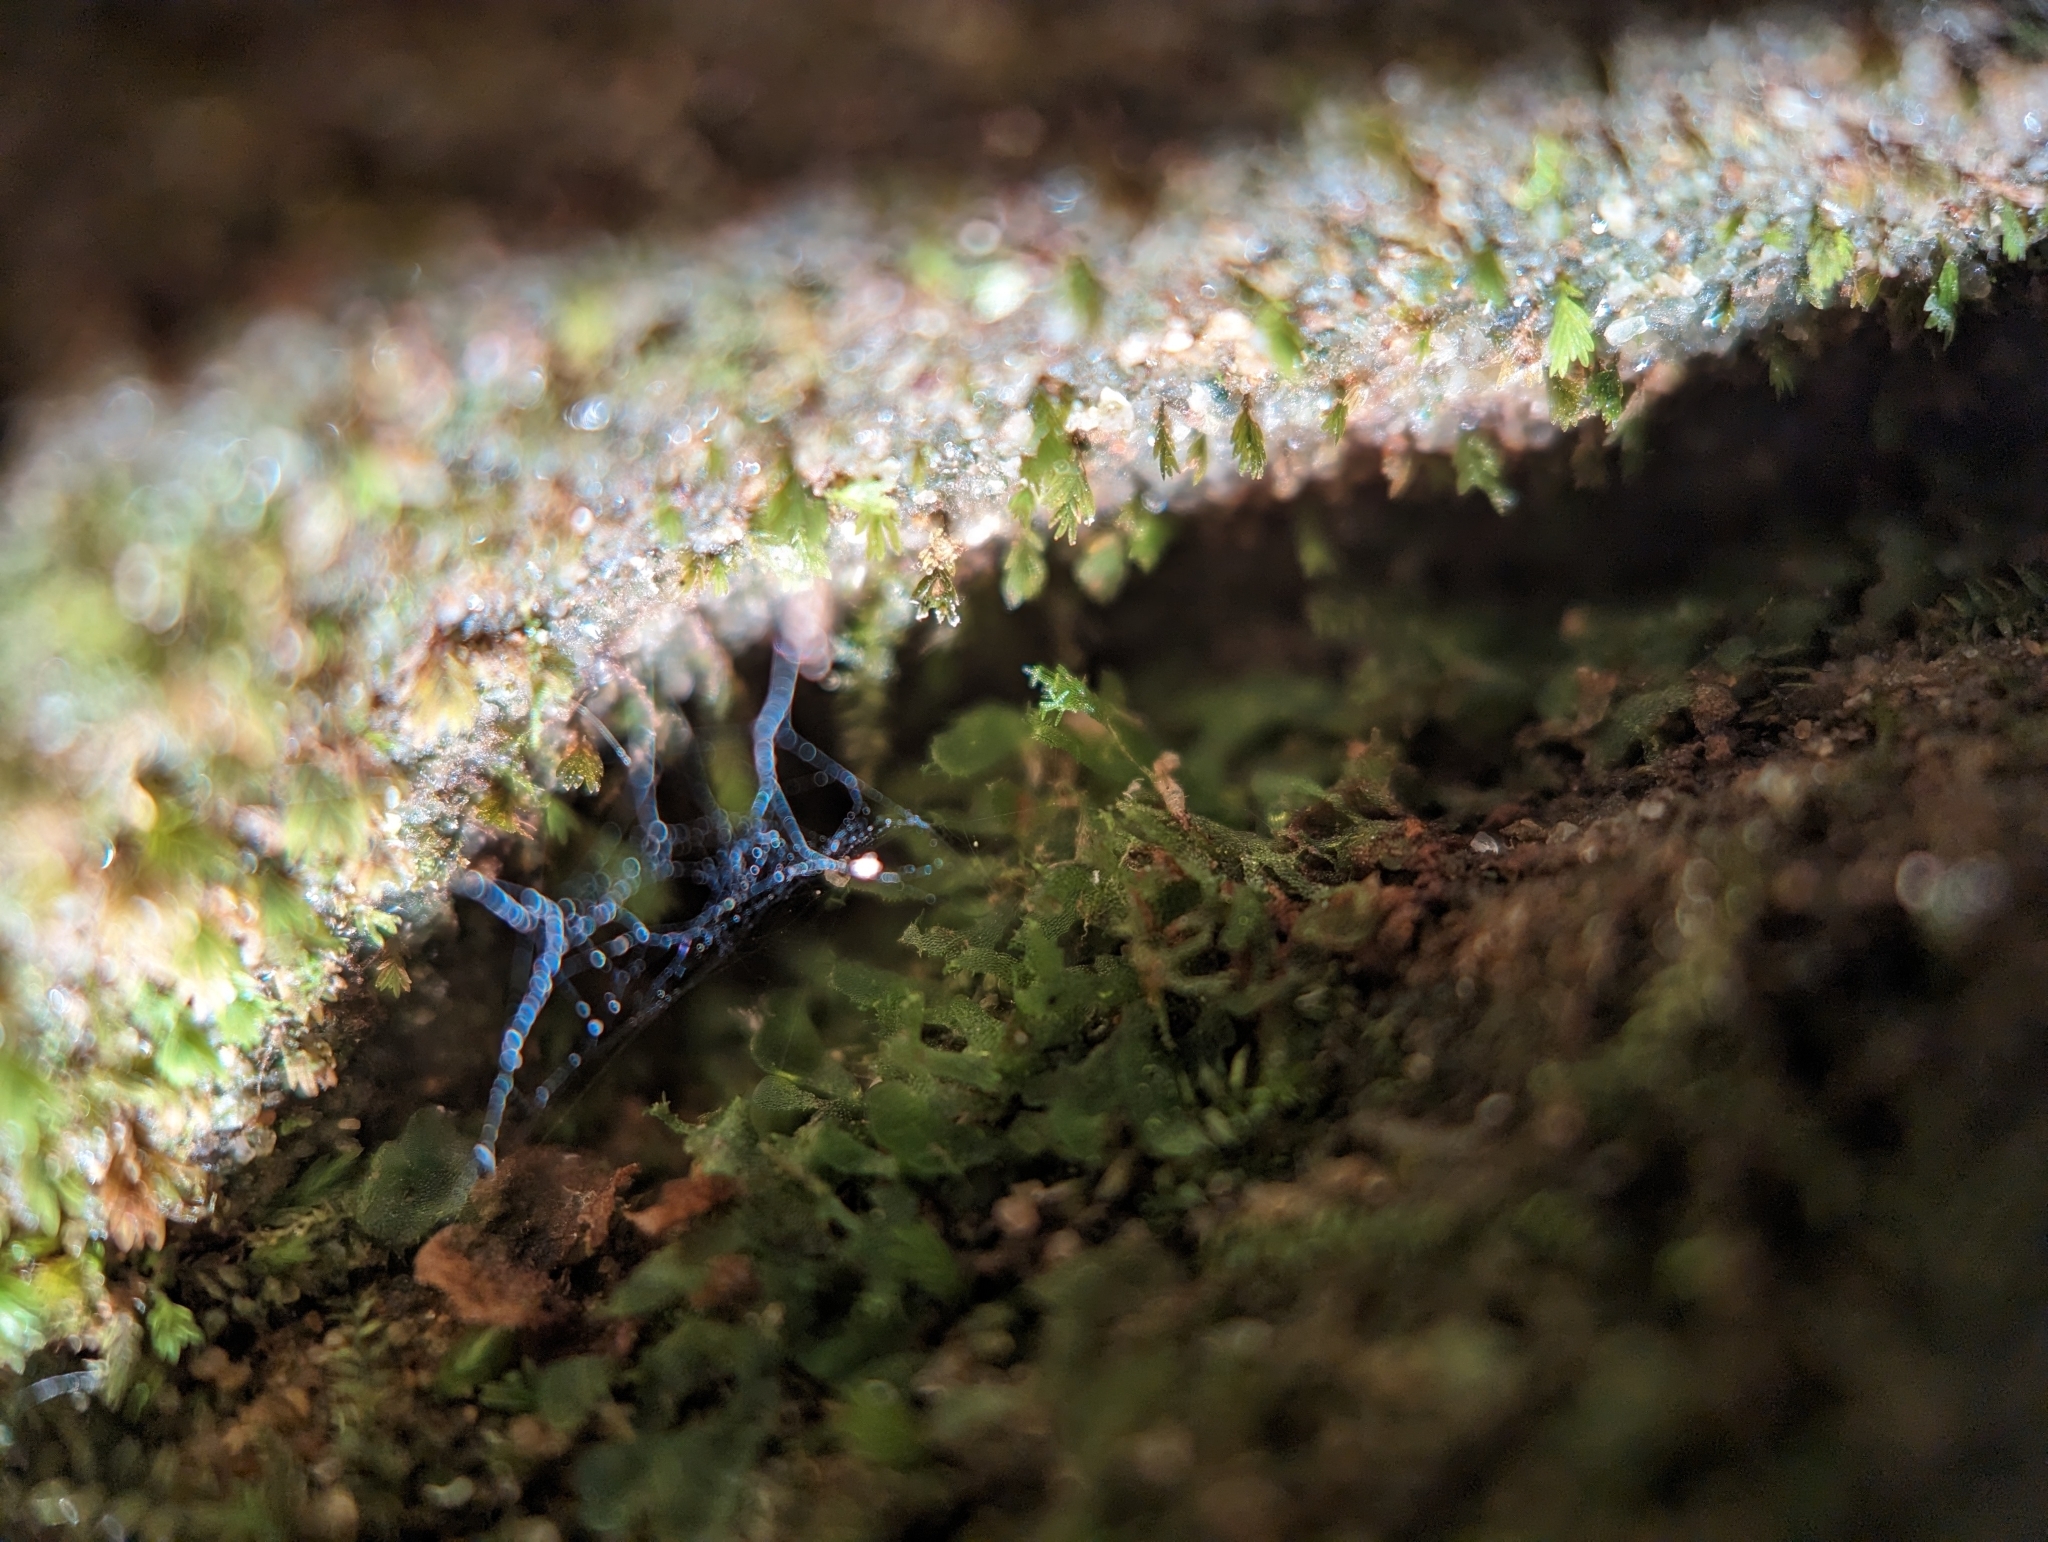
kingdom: Plantae
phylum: Tracheophyta
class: Polypodiopsida
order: Polypodiales
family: Pteridaceae
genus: Vittaria
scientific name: Vittaria appalachiana
